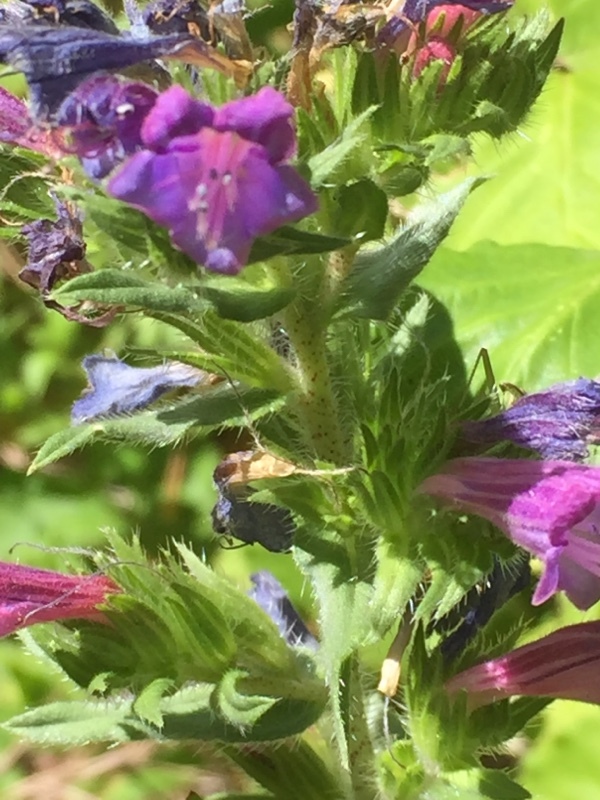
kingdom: Plantae
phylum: Tracheophyta
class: Magnoliopsida
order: Boraginales
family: Boraginaceae
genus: Echium
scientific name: Echium rosulatum
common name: Lax viper's-bugloss
